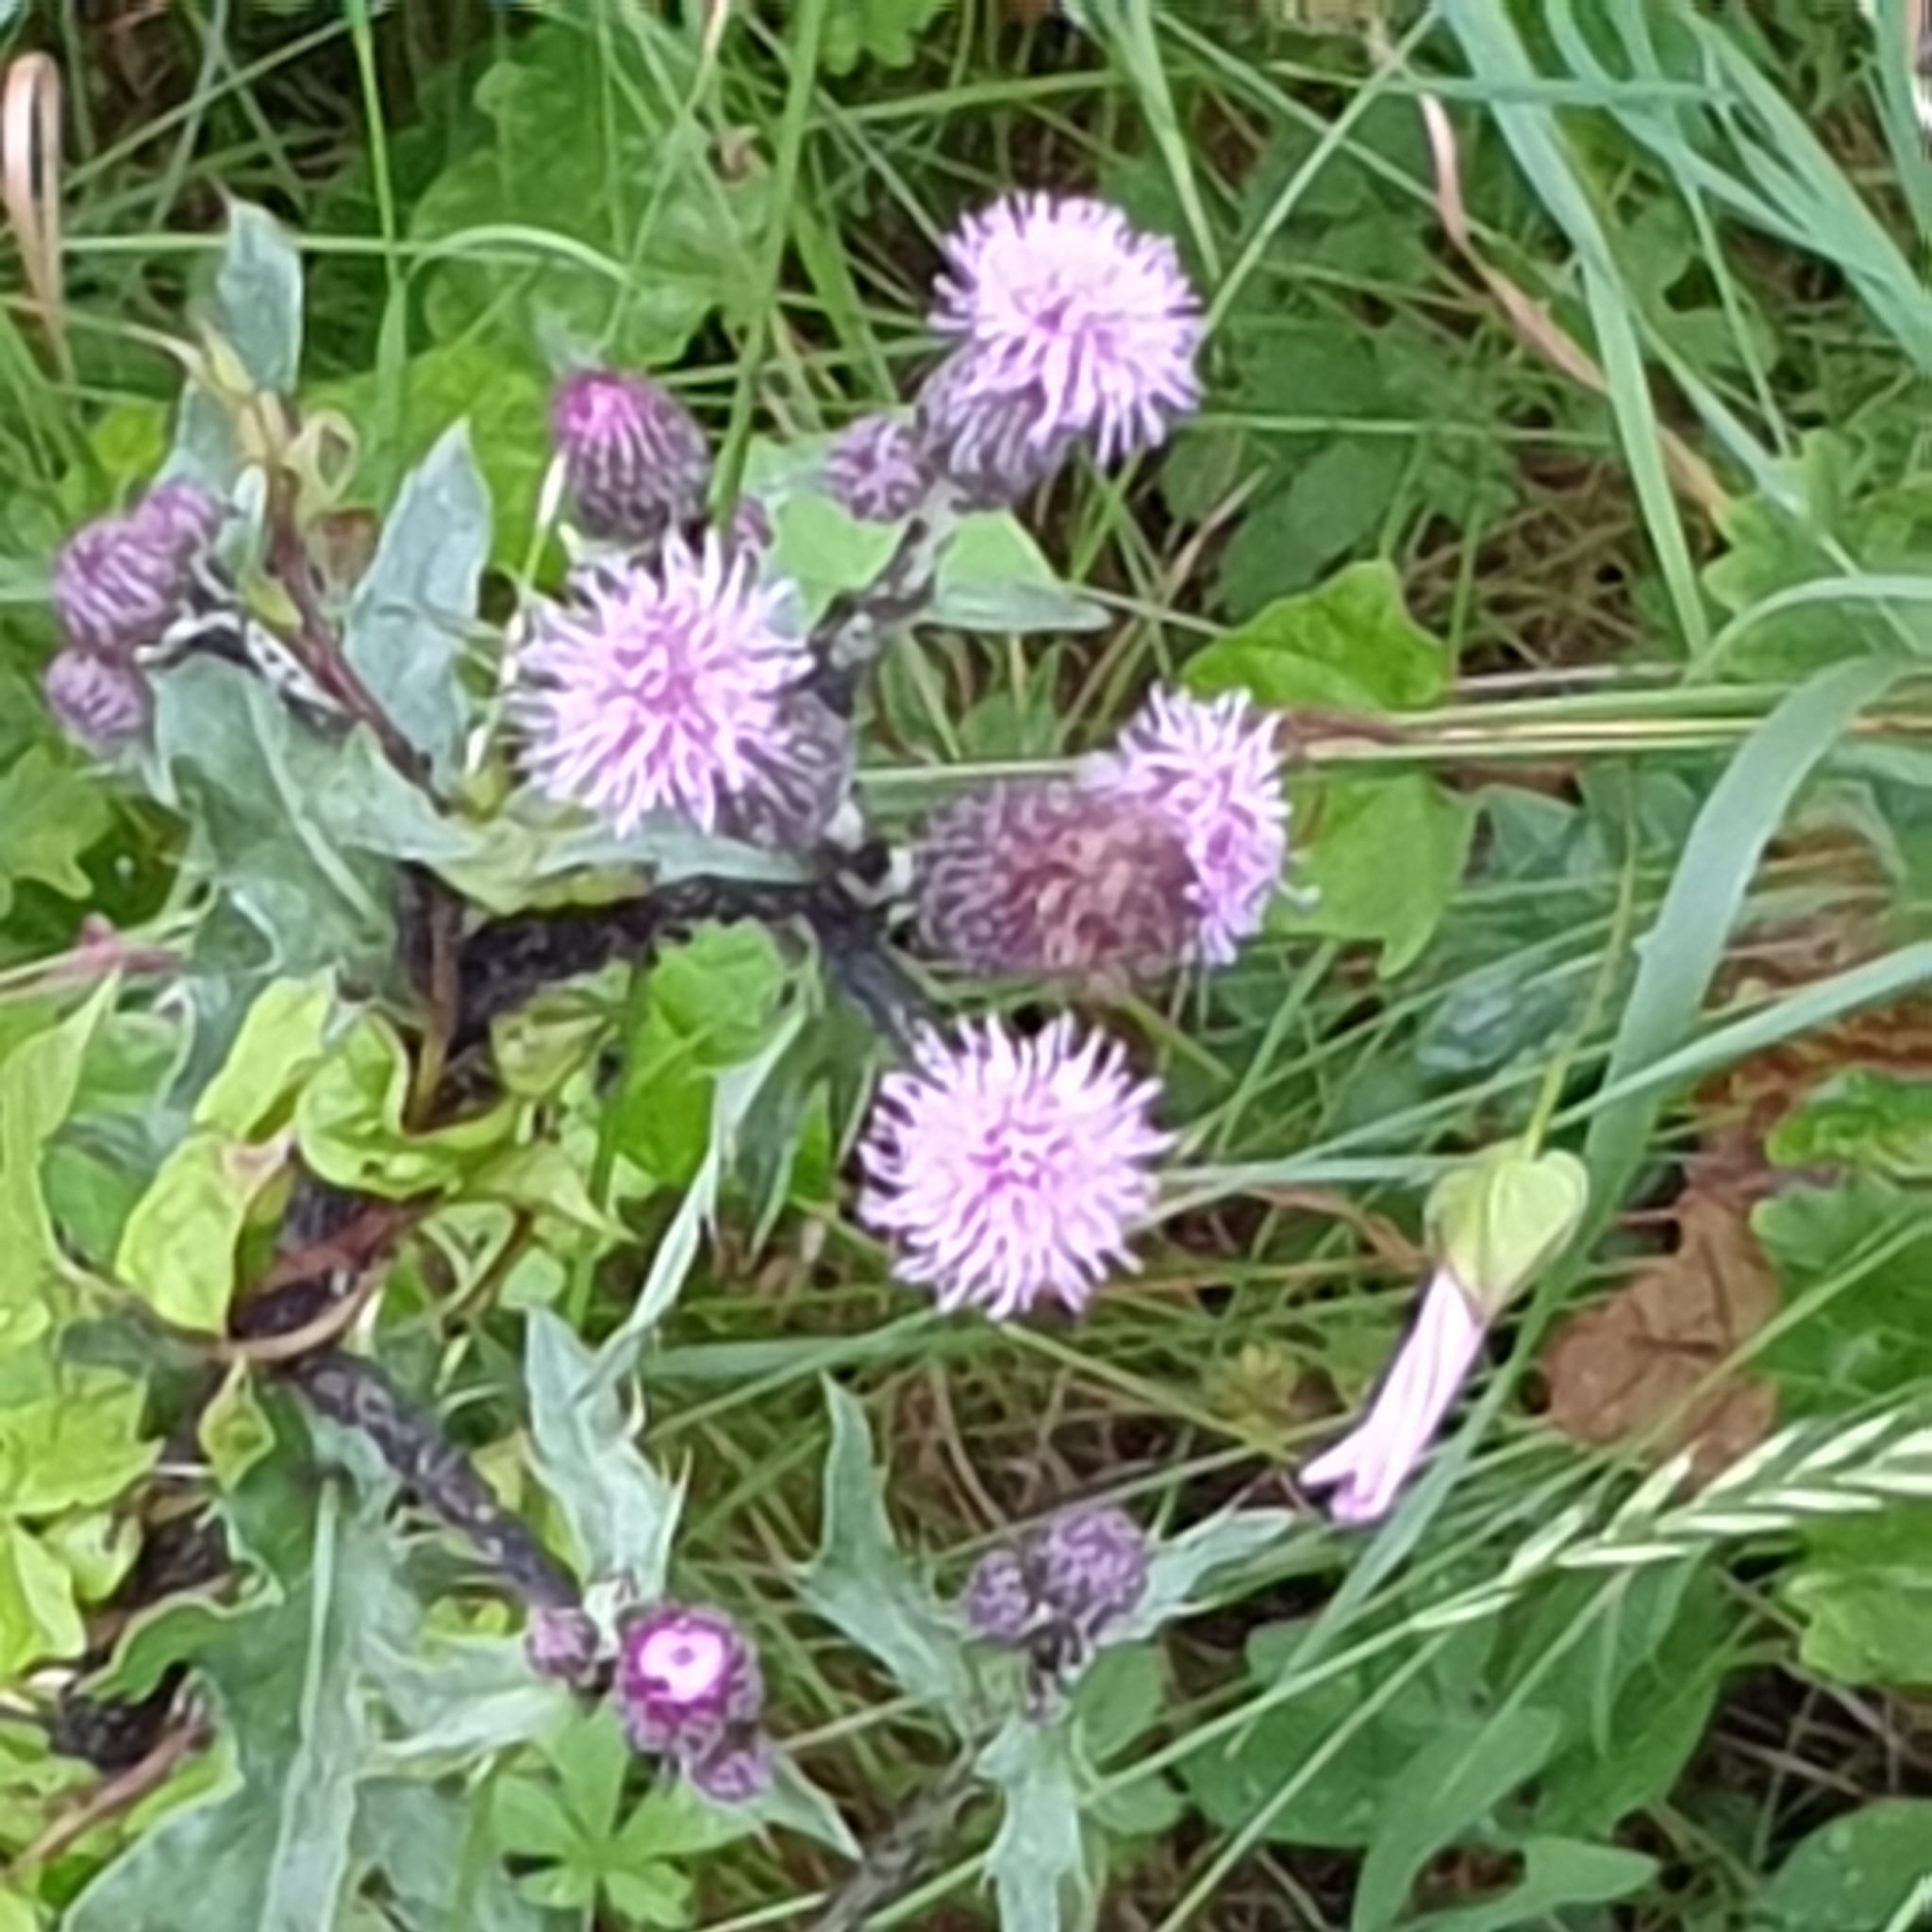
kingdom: Plantae
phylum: Tracheophyta
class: Magnoliopsida
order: Asterales
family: Asteraceae
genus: Cirsium
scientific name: Cirsium arvense
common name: Creeping thistle
